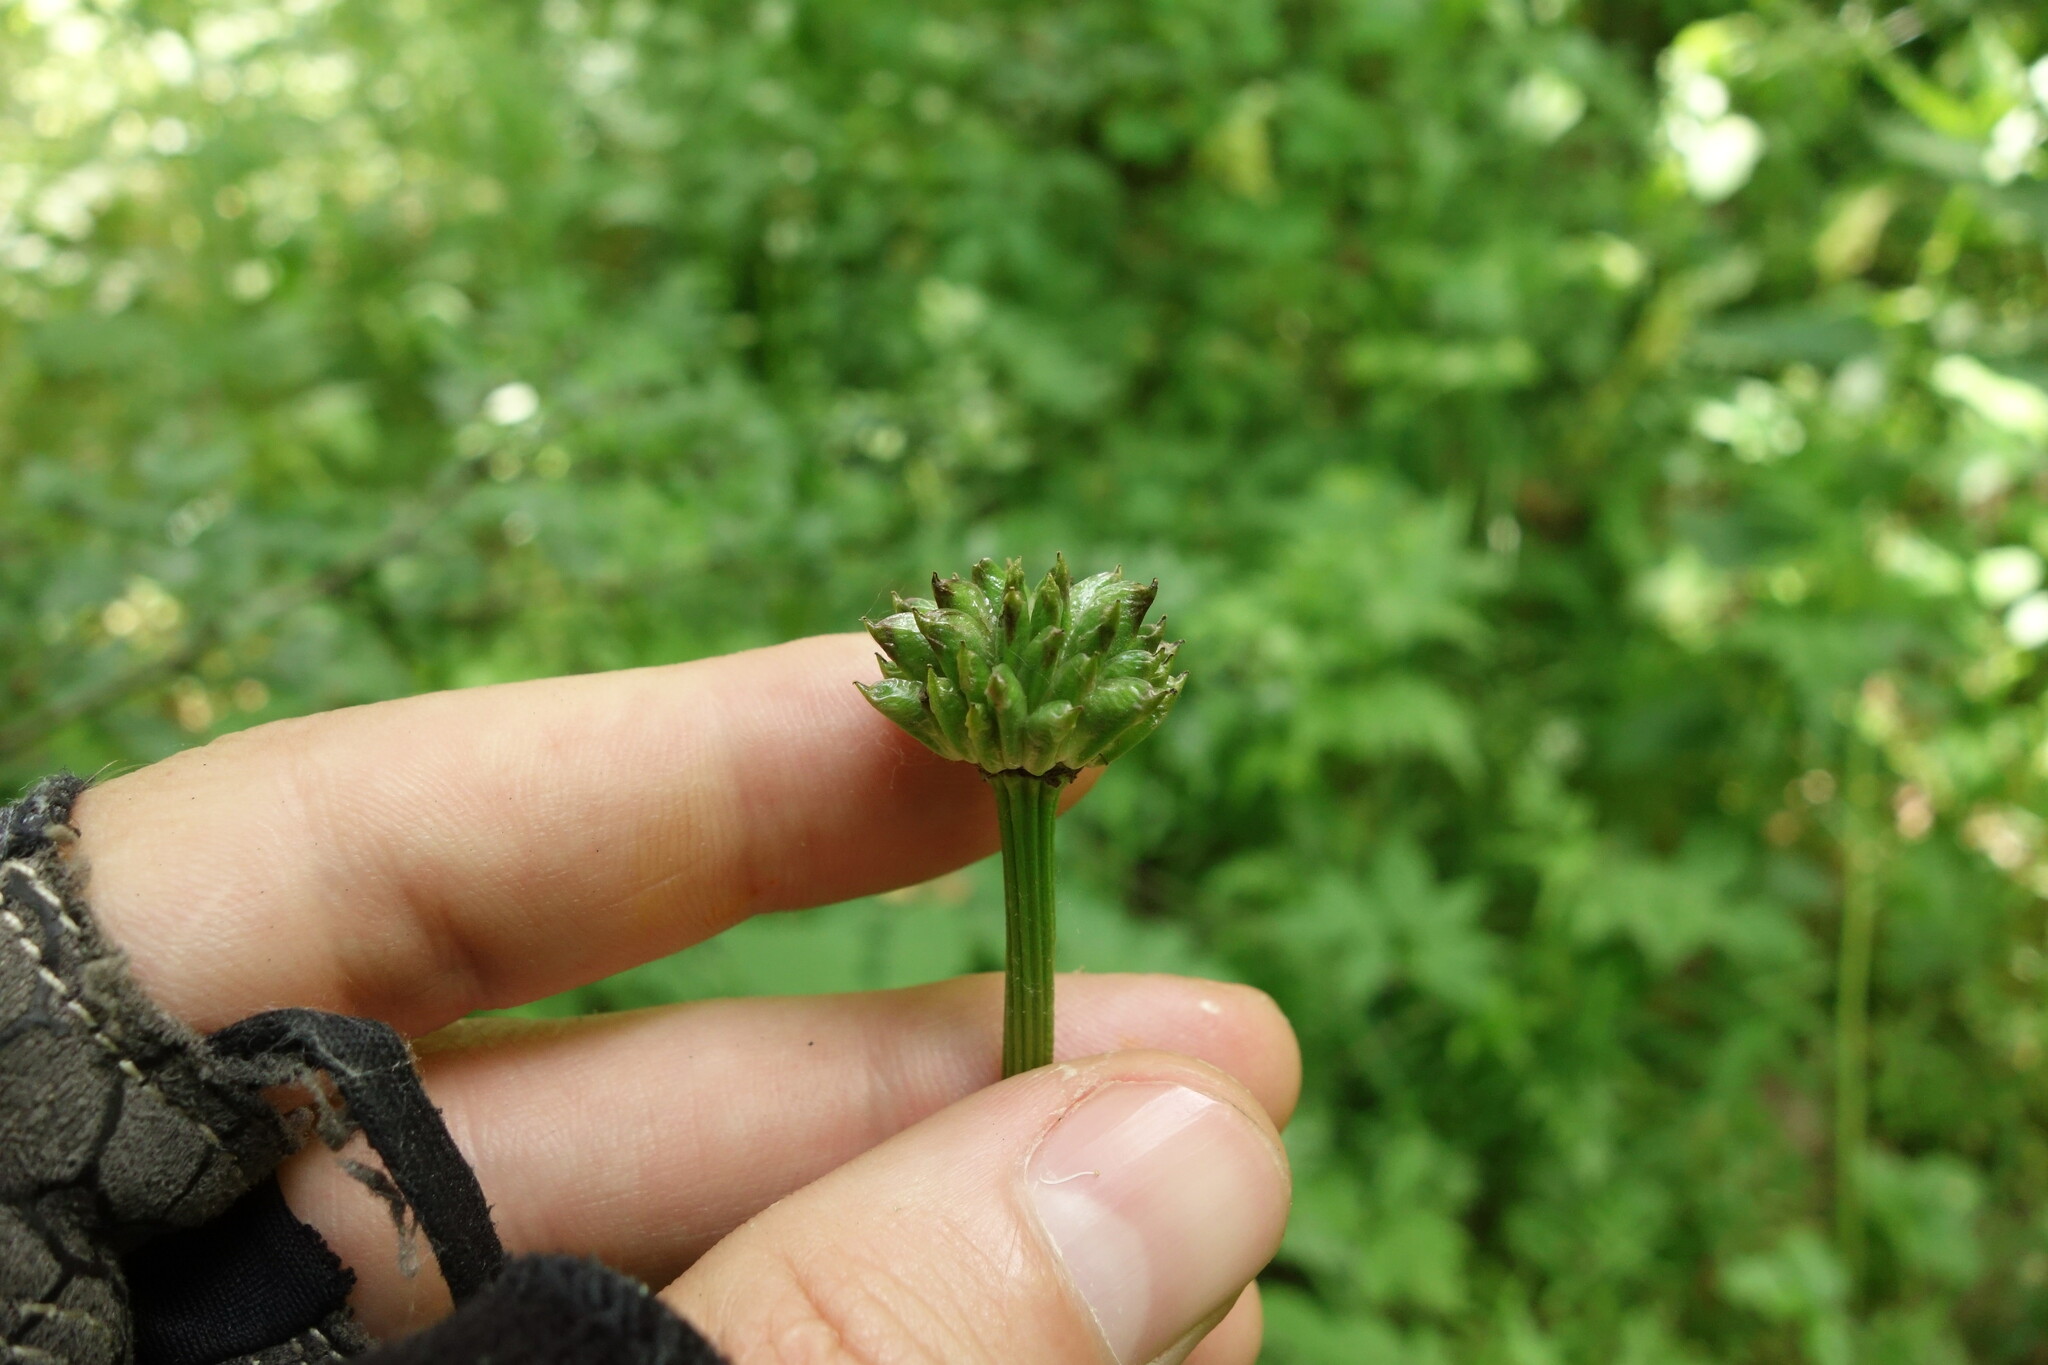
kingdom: Plantae
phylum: Tracheophyta
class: Magnoliopsida
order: Ranunculales
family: Ranunculaceae
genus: Trollius
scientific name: Trollius europaeus
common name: European globeflower
